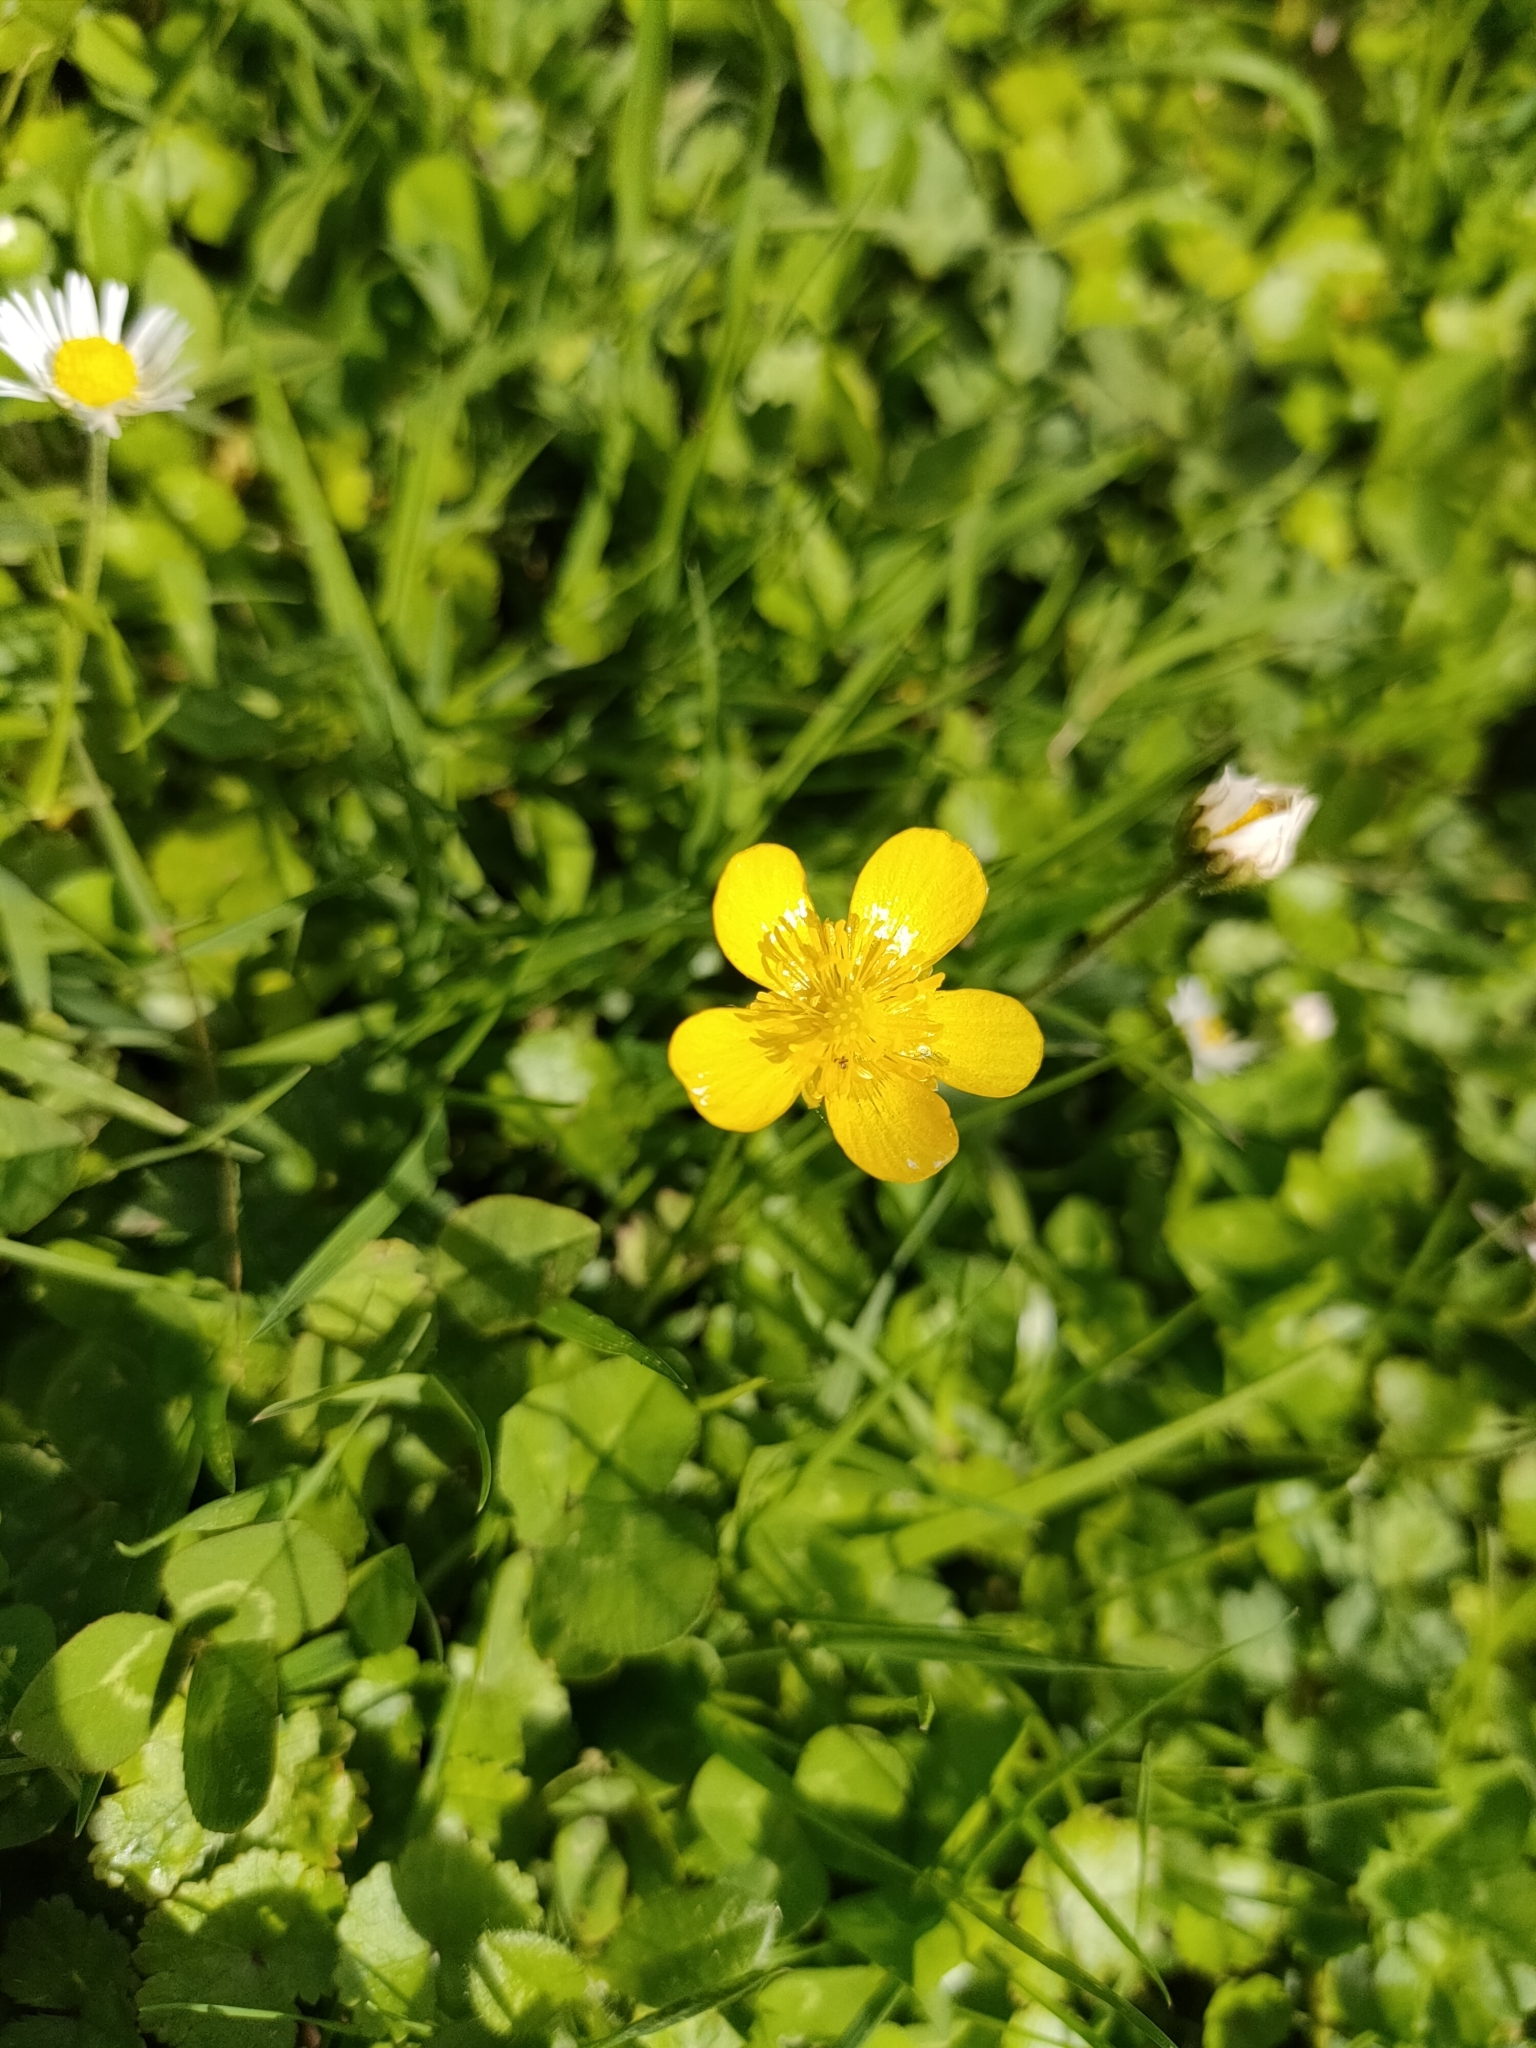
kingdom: Plantae
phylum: Tracheophyta
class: Magnoliopsida
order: Ranunculales
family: Ranunculaceae
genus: Ranunculus
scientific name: Ranunculus repens
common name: Creeping buttercup
